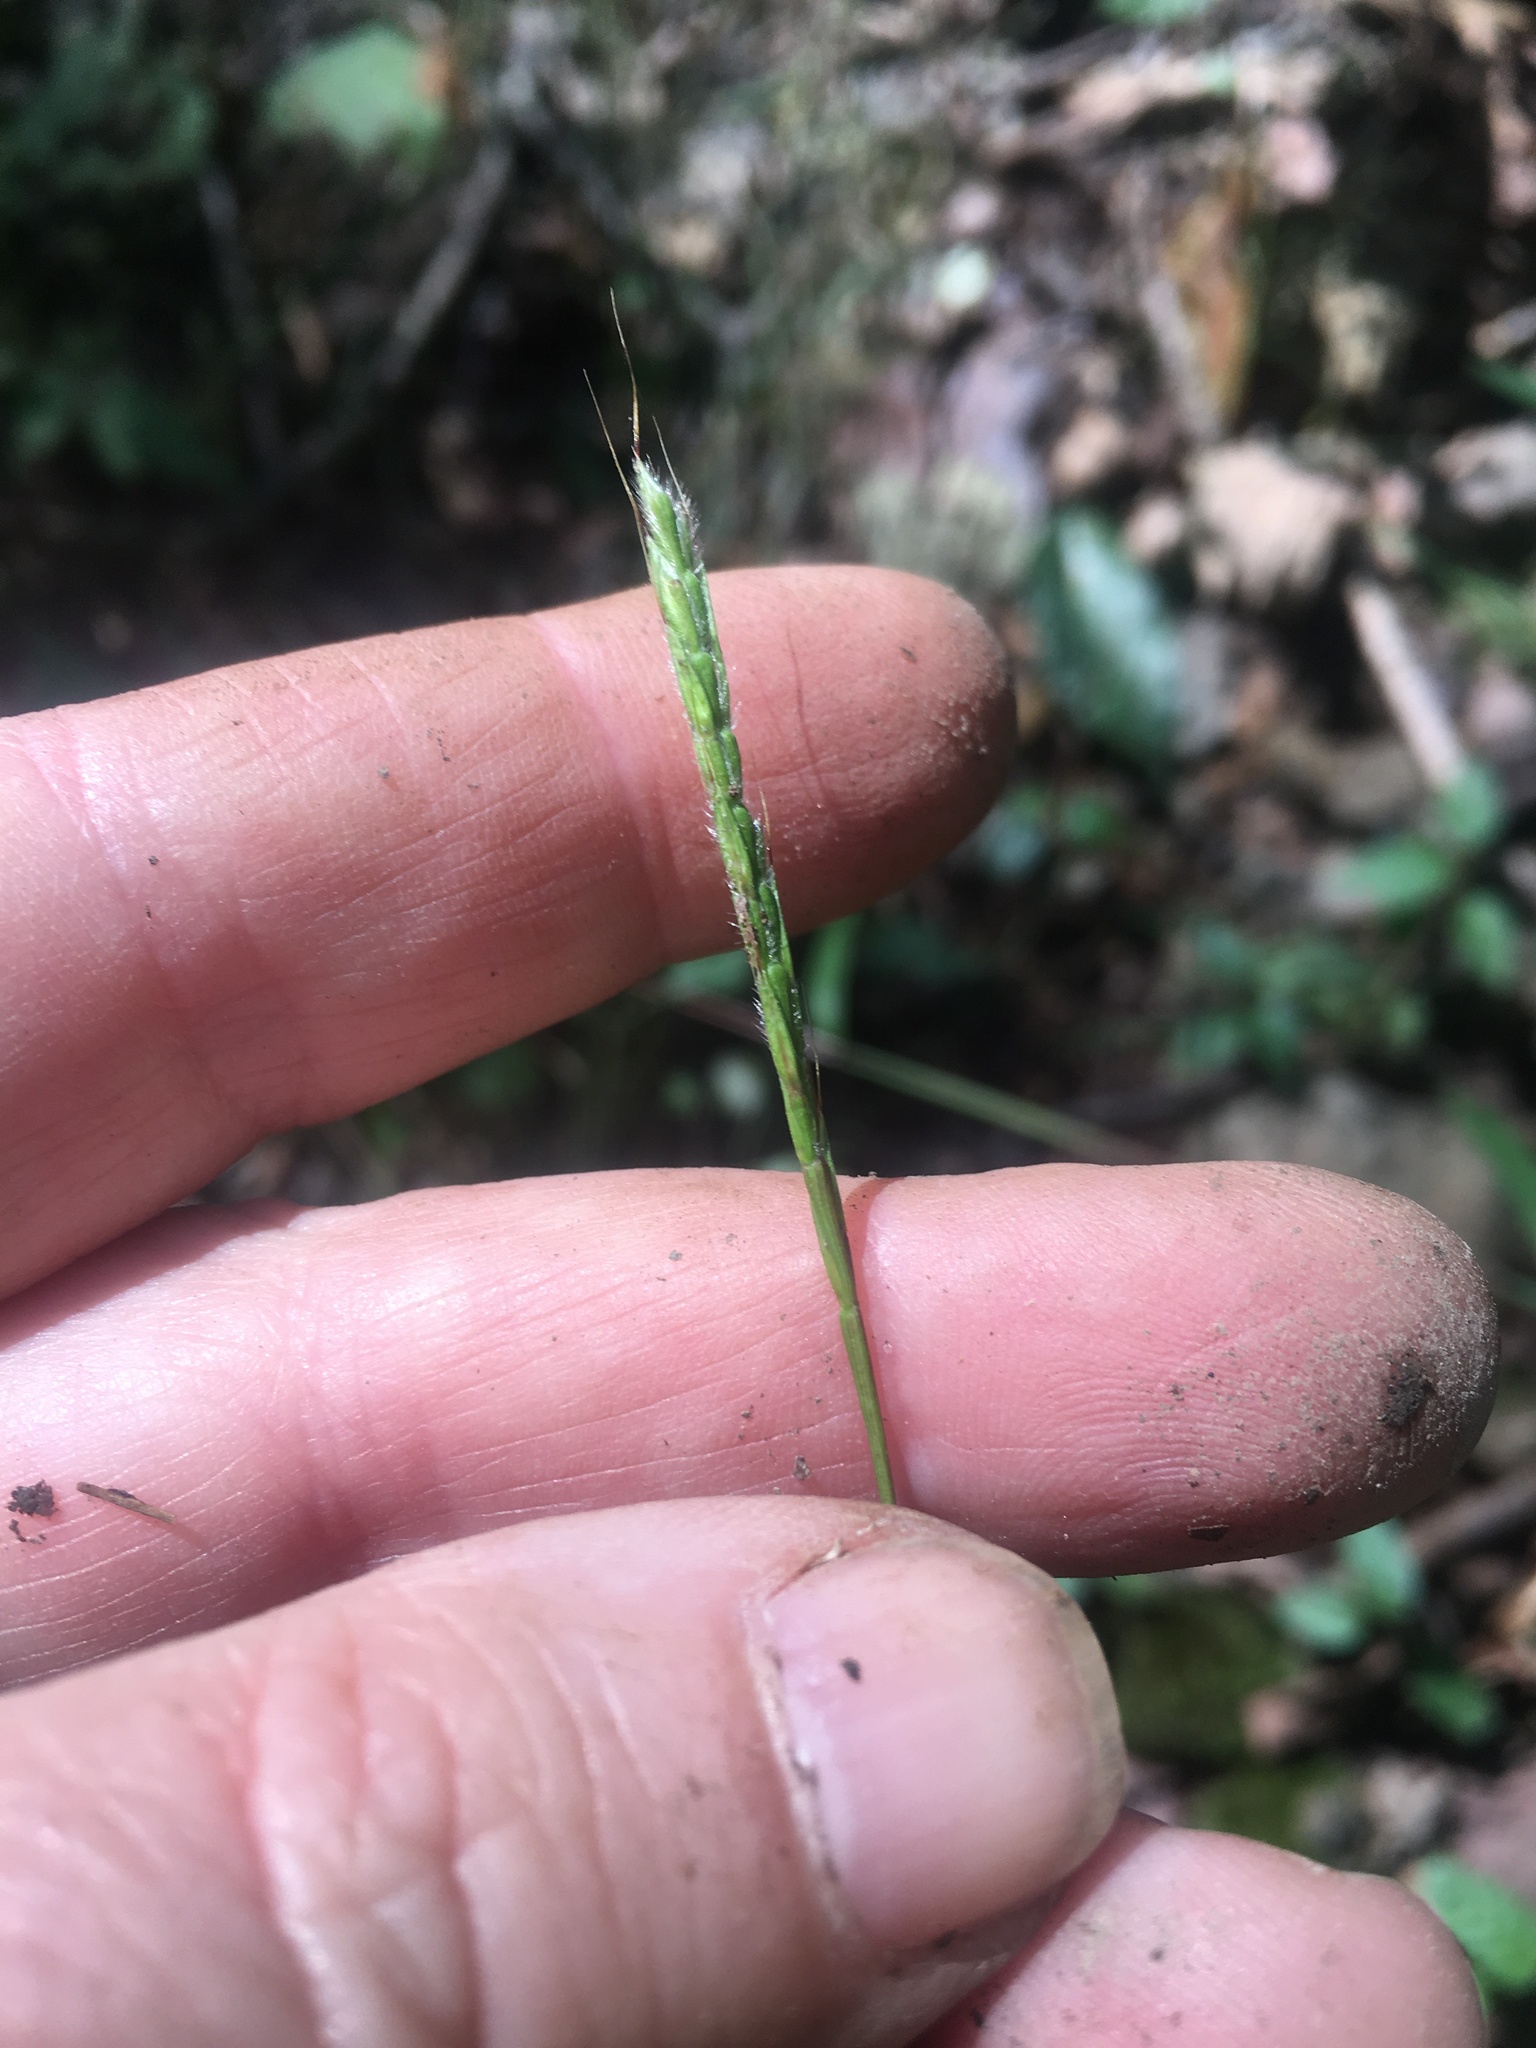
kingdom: Plantae
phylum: Tracheophyta
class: Liliopsida
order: Poales
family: Poaceae
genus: Microstegium
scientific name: Microstegium vimineum
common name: Japanese stiltgrass
